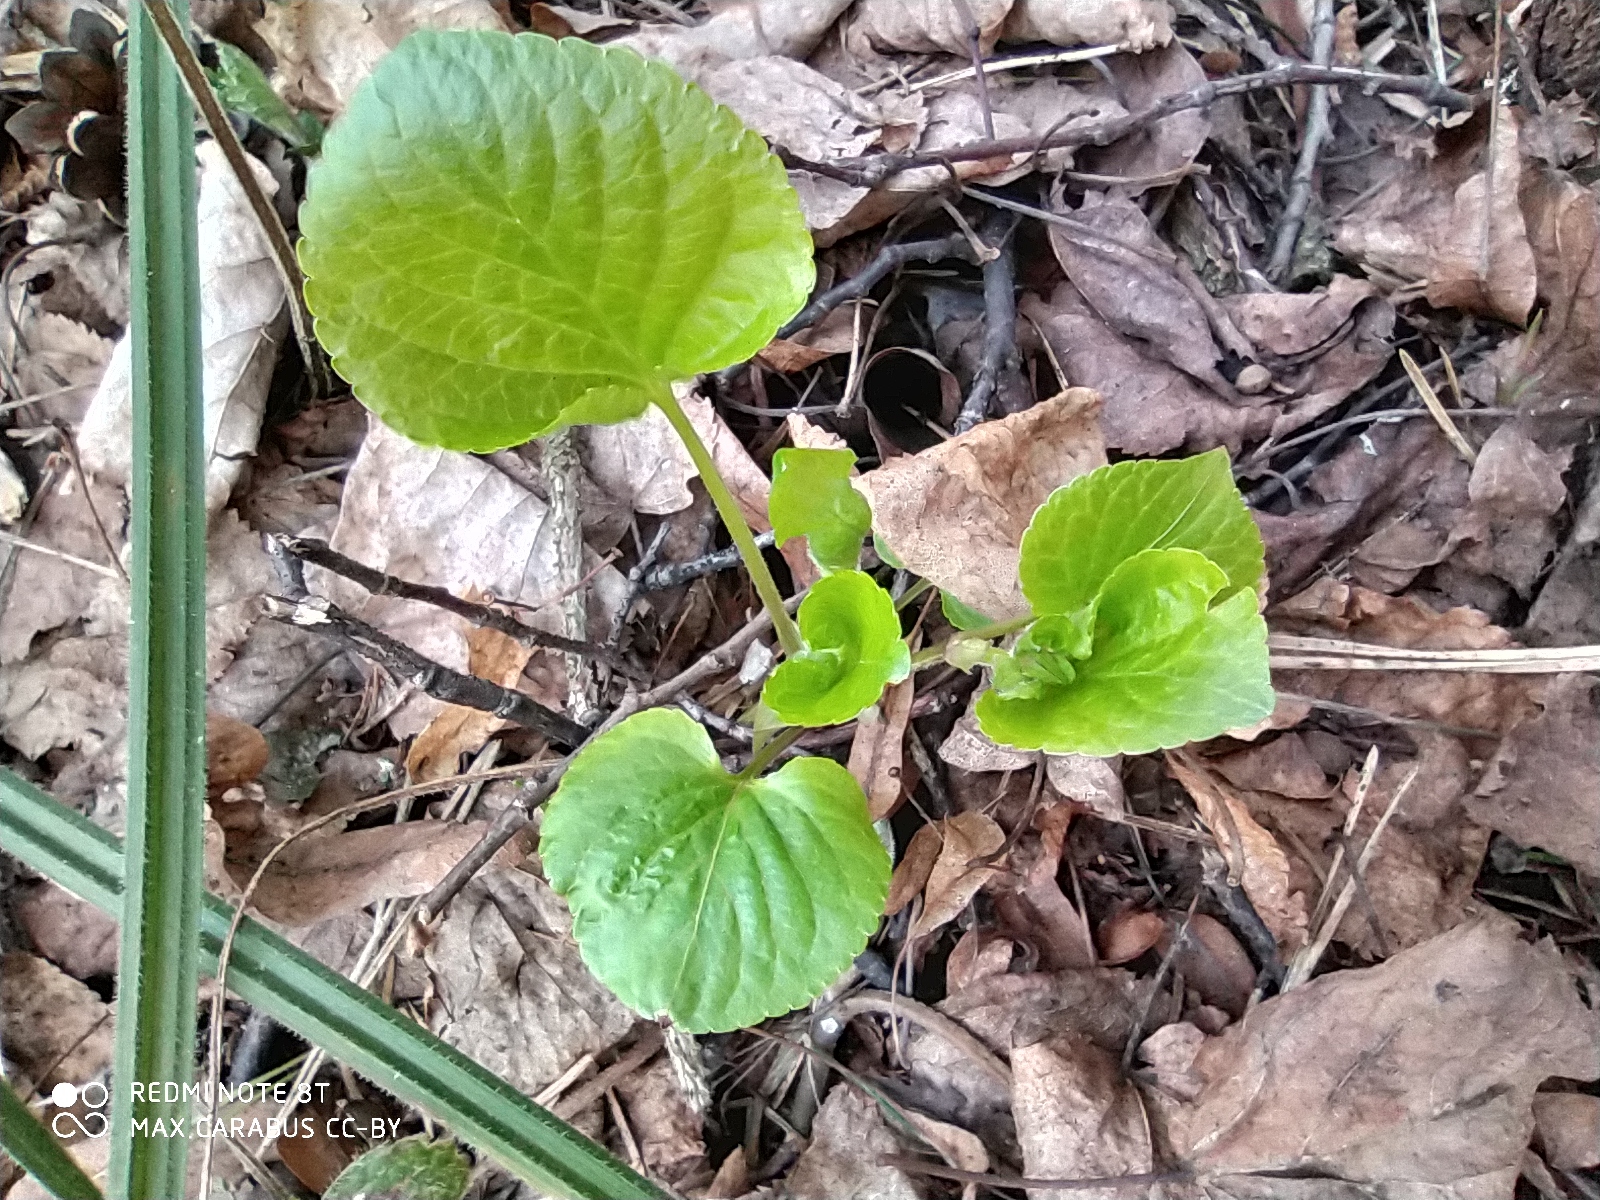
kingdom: Plantae
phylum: Tracheophyta
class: Magnoliopsida
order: Malpighiales
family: Violaceae
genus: Viola
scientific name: Viola mirabilis
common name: Wonder violet
